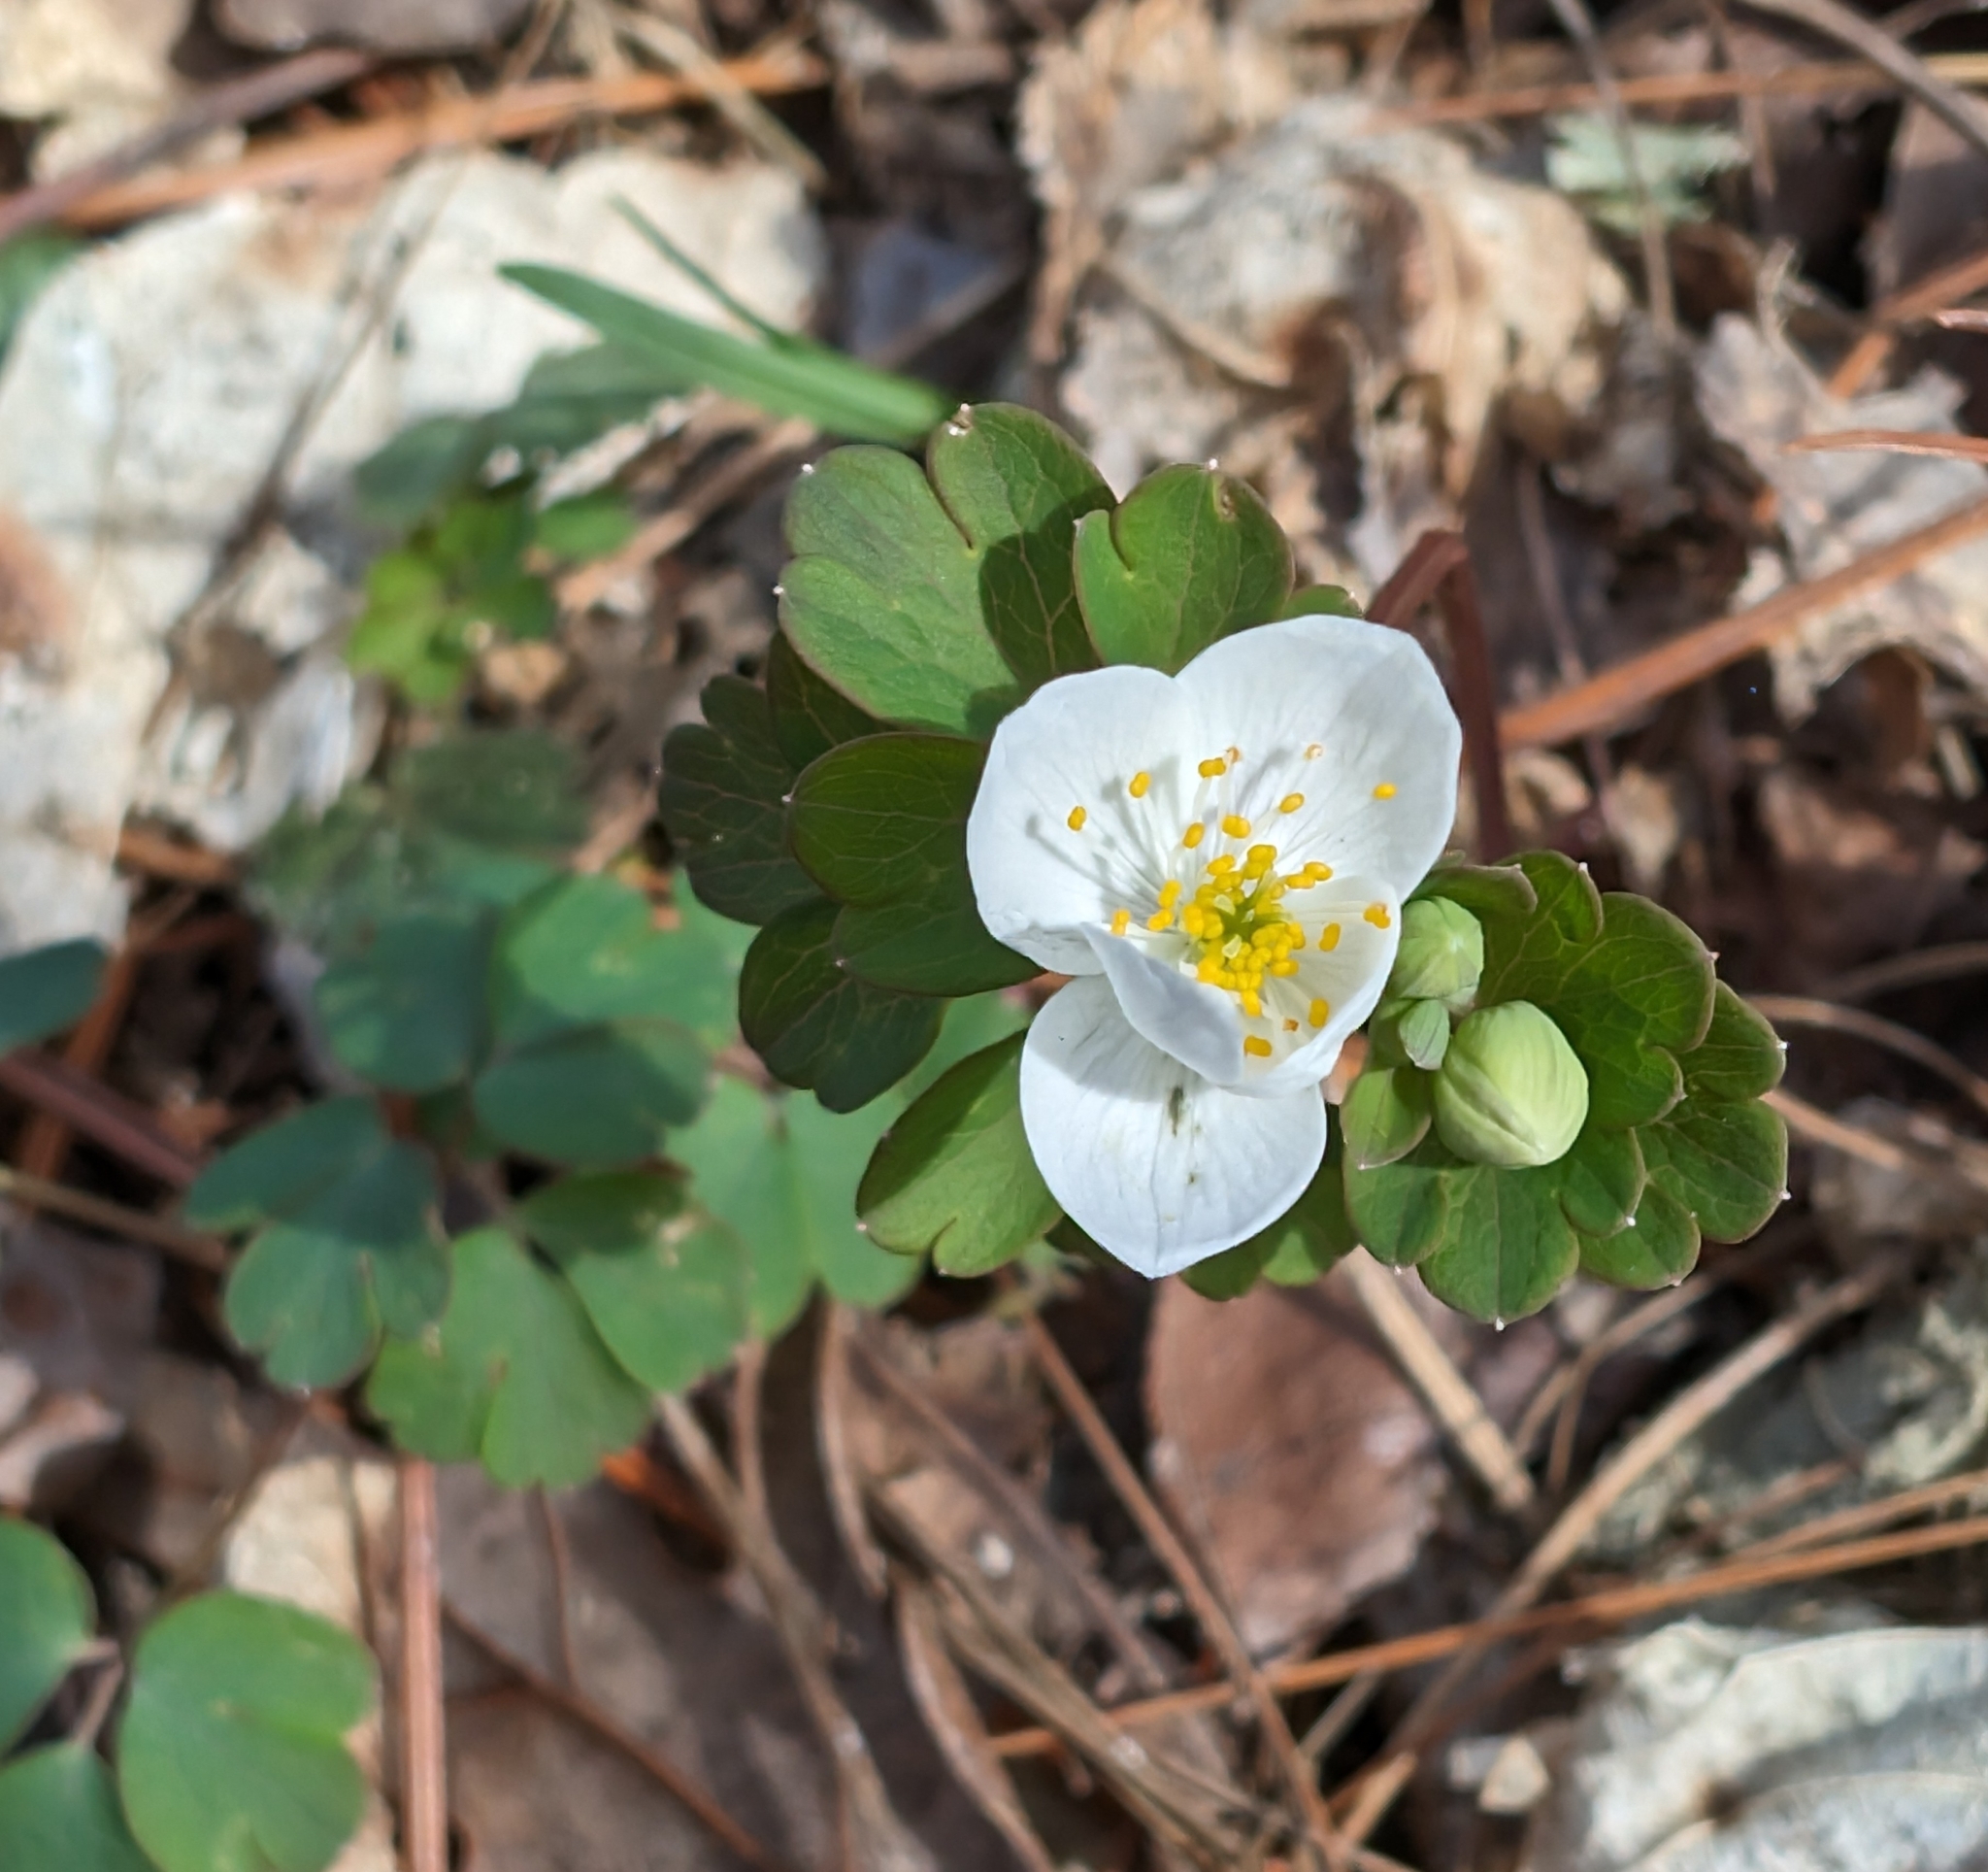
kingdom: Plantae
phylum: Tracheophyta
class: Magnoliopsida
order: Ranunculales
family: Ranunculaceae
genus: Enemion
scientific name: Enemion biternatum
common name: Eastern false rue-anemone
